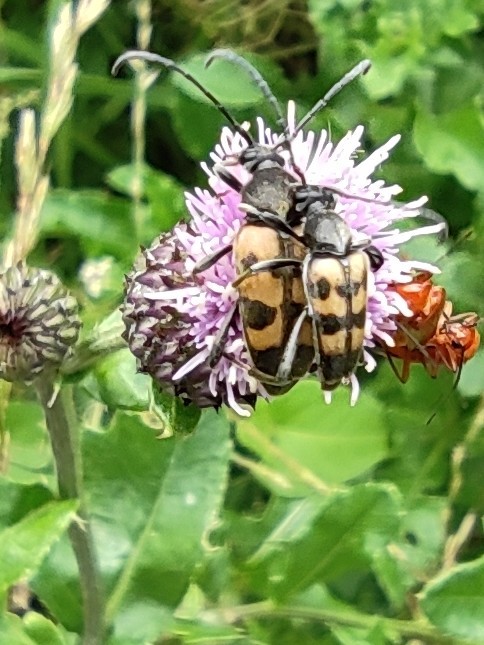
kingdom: Animalia
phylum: Arthropoda
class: Insecta
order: Coleoptera
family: Cerambycidae
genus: Pachytodes
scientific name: Pachytodes
